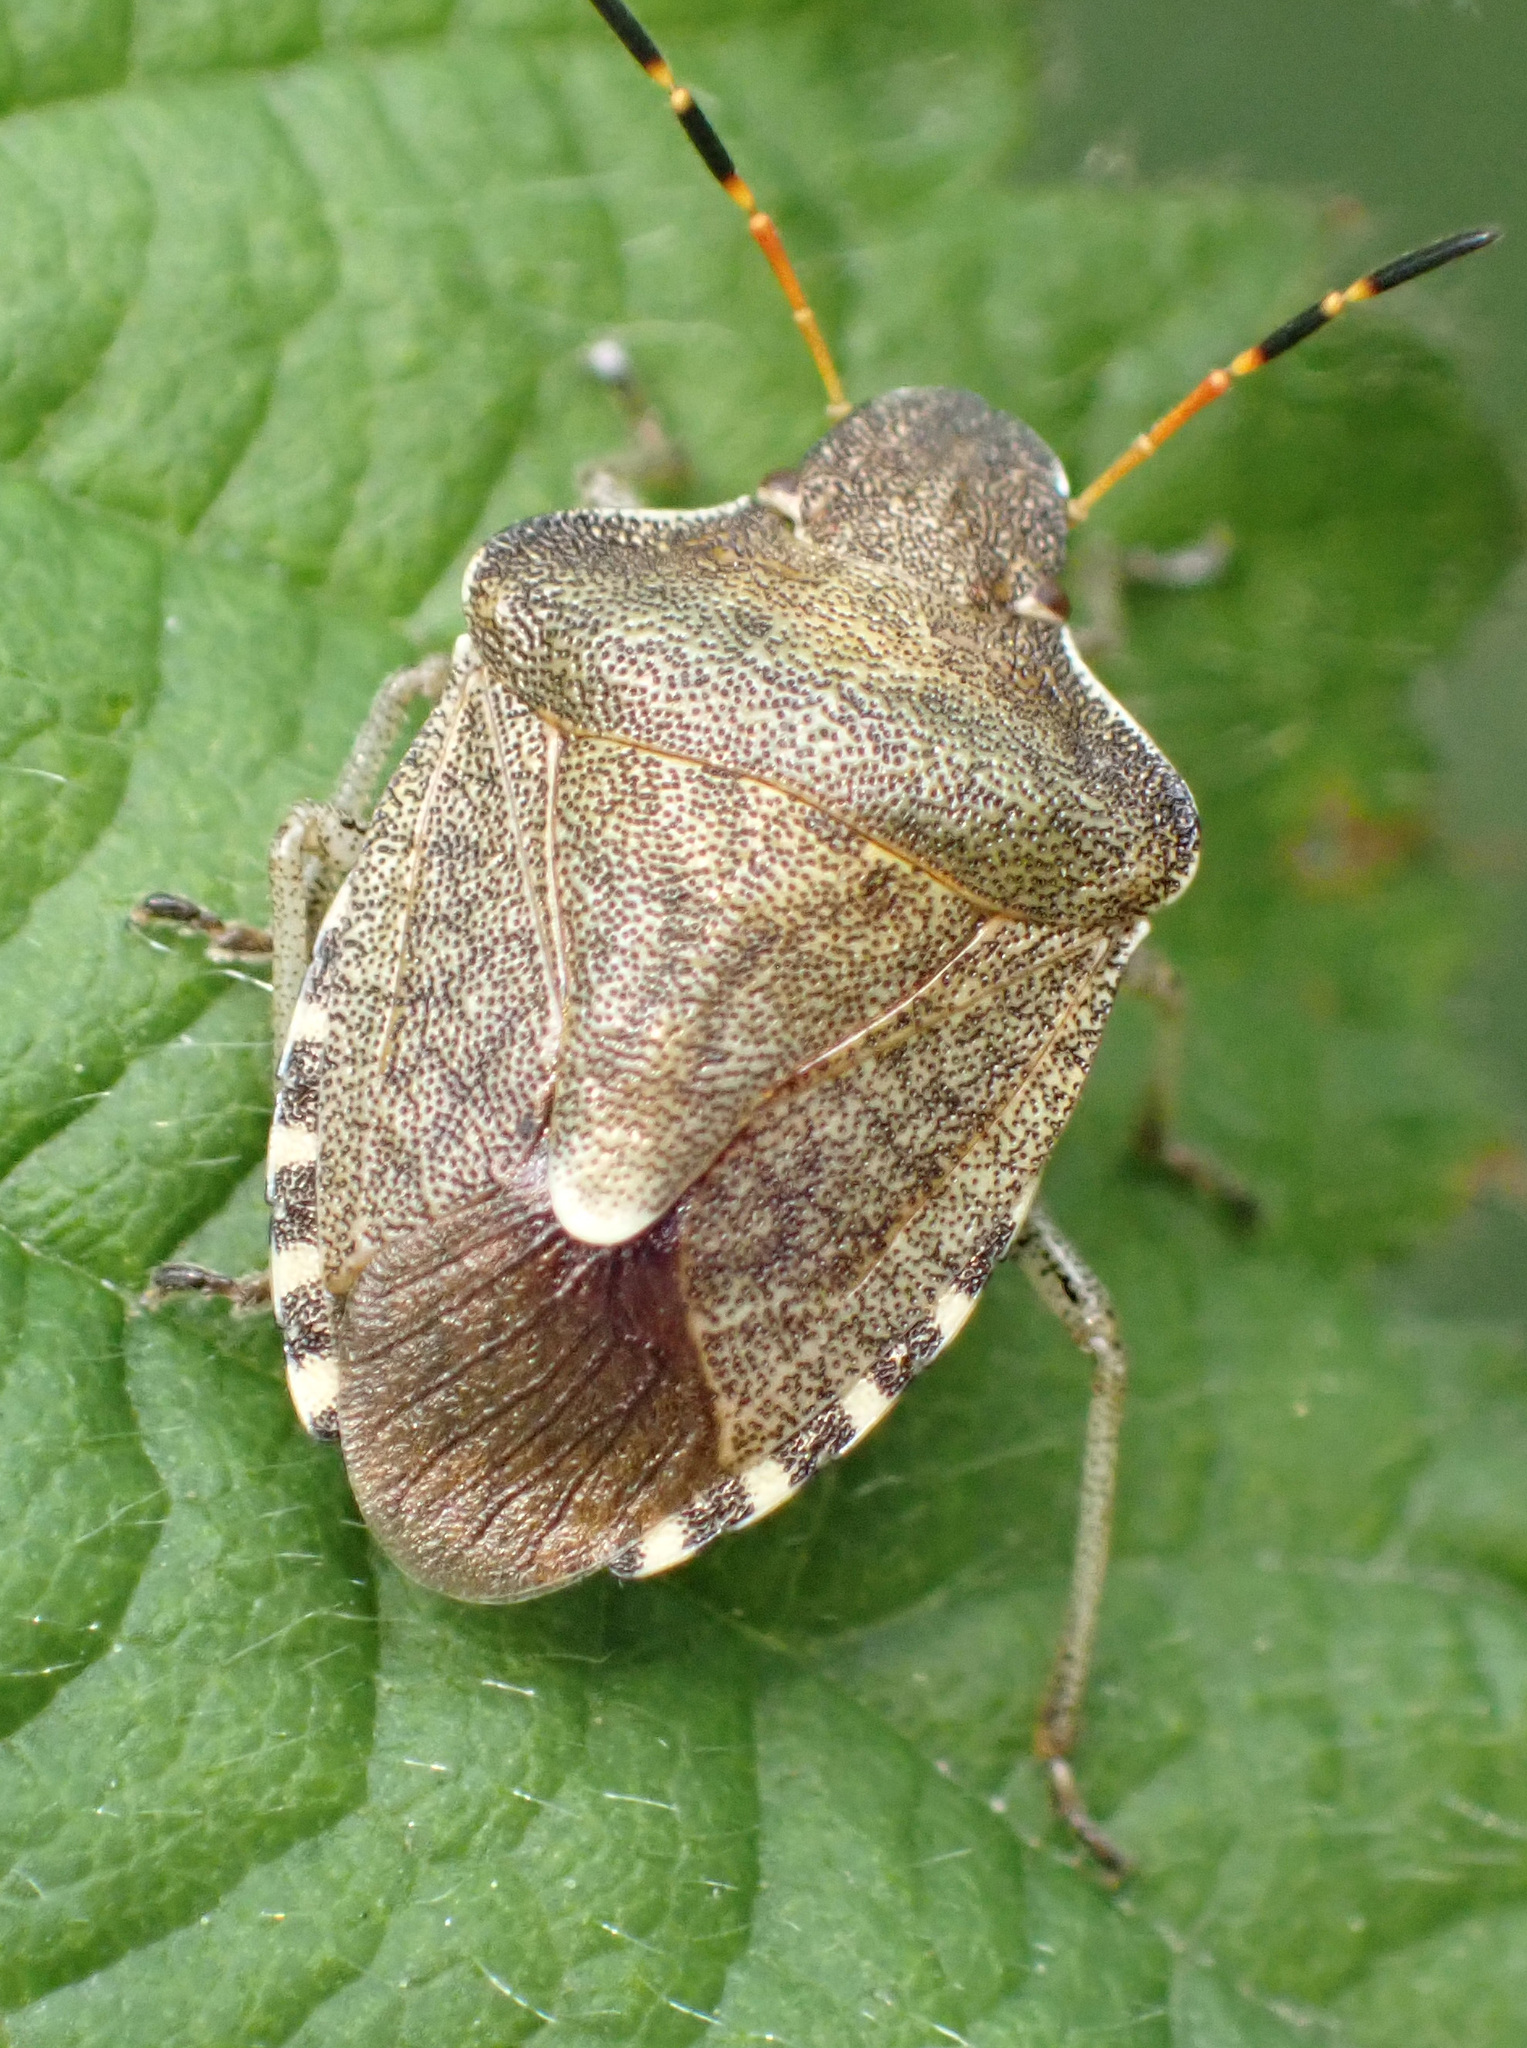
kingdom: Animalia
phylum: Arthropoda
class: Insecta
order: Hemiptera
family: Pentatomidae
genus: Holcostethus
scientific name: Holcostethus strictus
